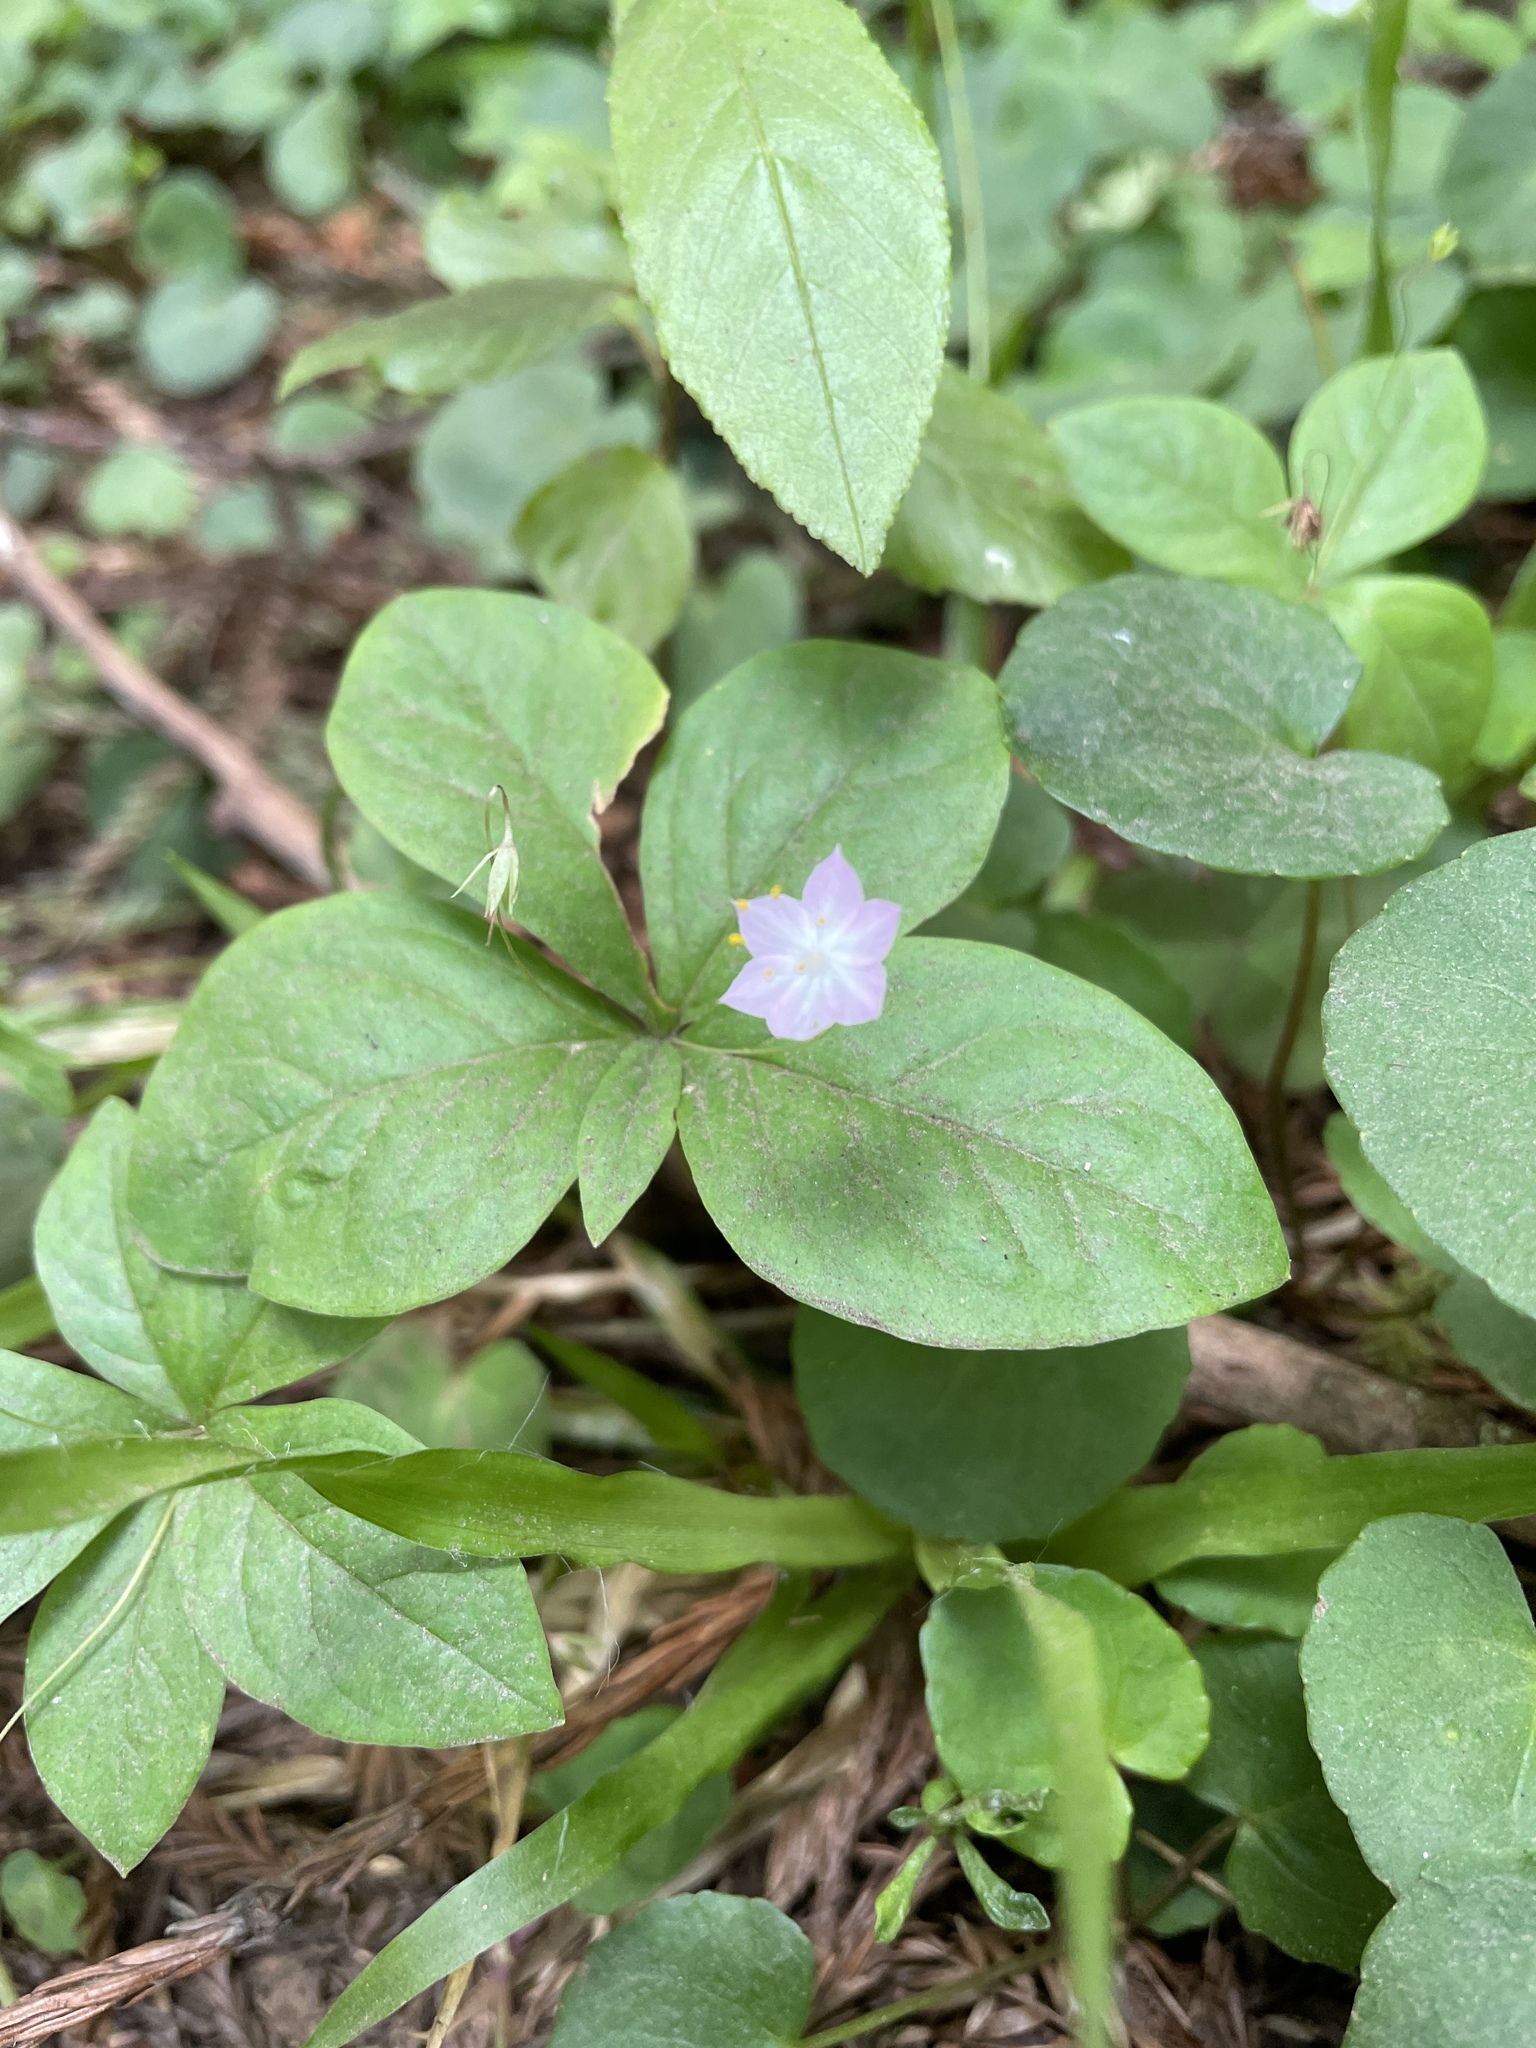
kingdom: Plantae
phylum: Tracheophyta
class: Magnoliopsida
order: Ericales
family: Primulaceae
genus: Lysimachia
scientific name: Lysimachia latifolia
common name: Pacific starflower
